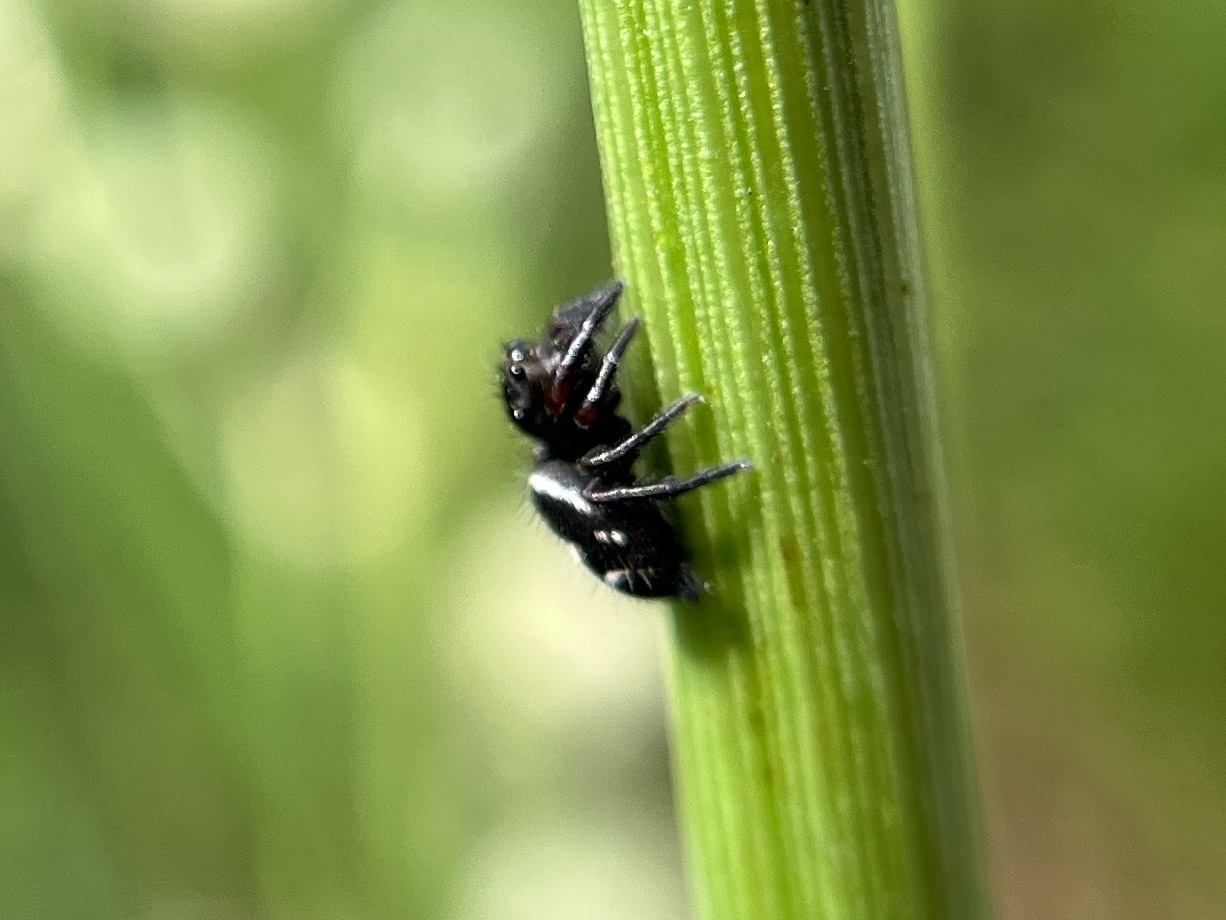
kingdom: Animalia
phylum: Arthropoda
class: Arachnida
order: Araneae
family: Salticidae
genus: Phidippus
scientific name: Phidippus audax
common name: Bold jumper
